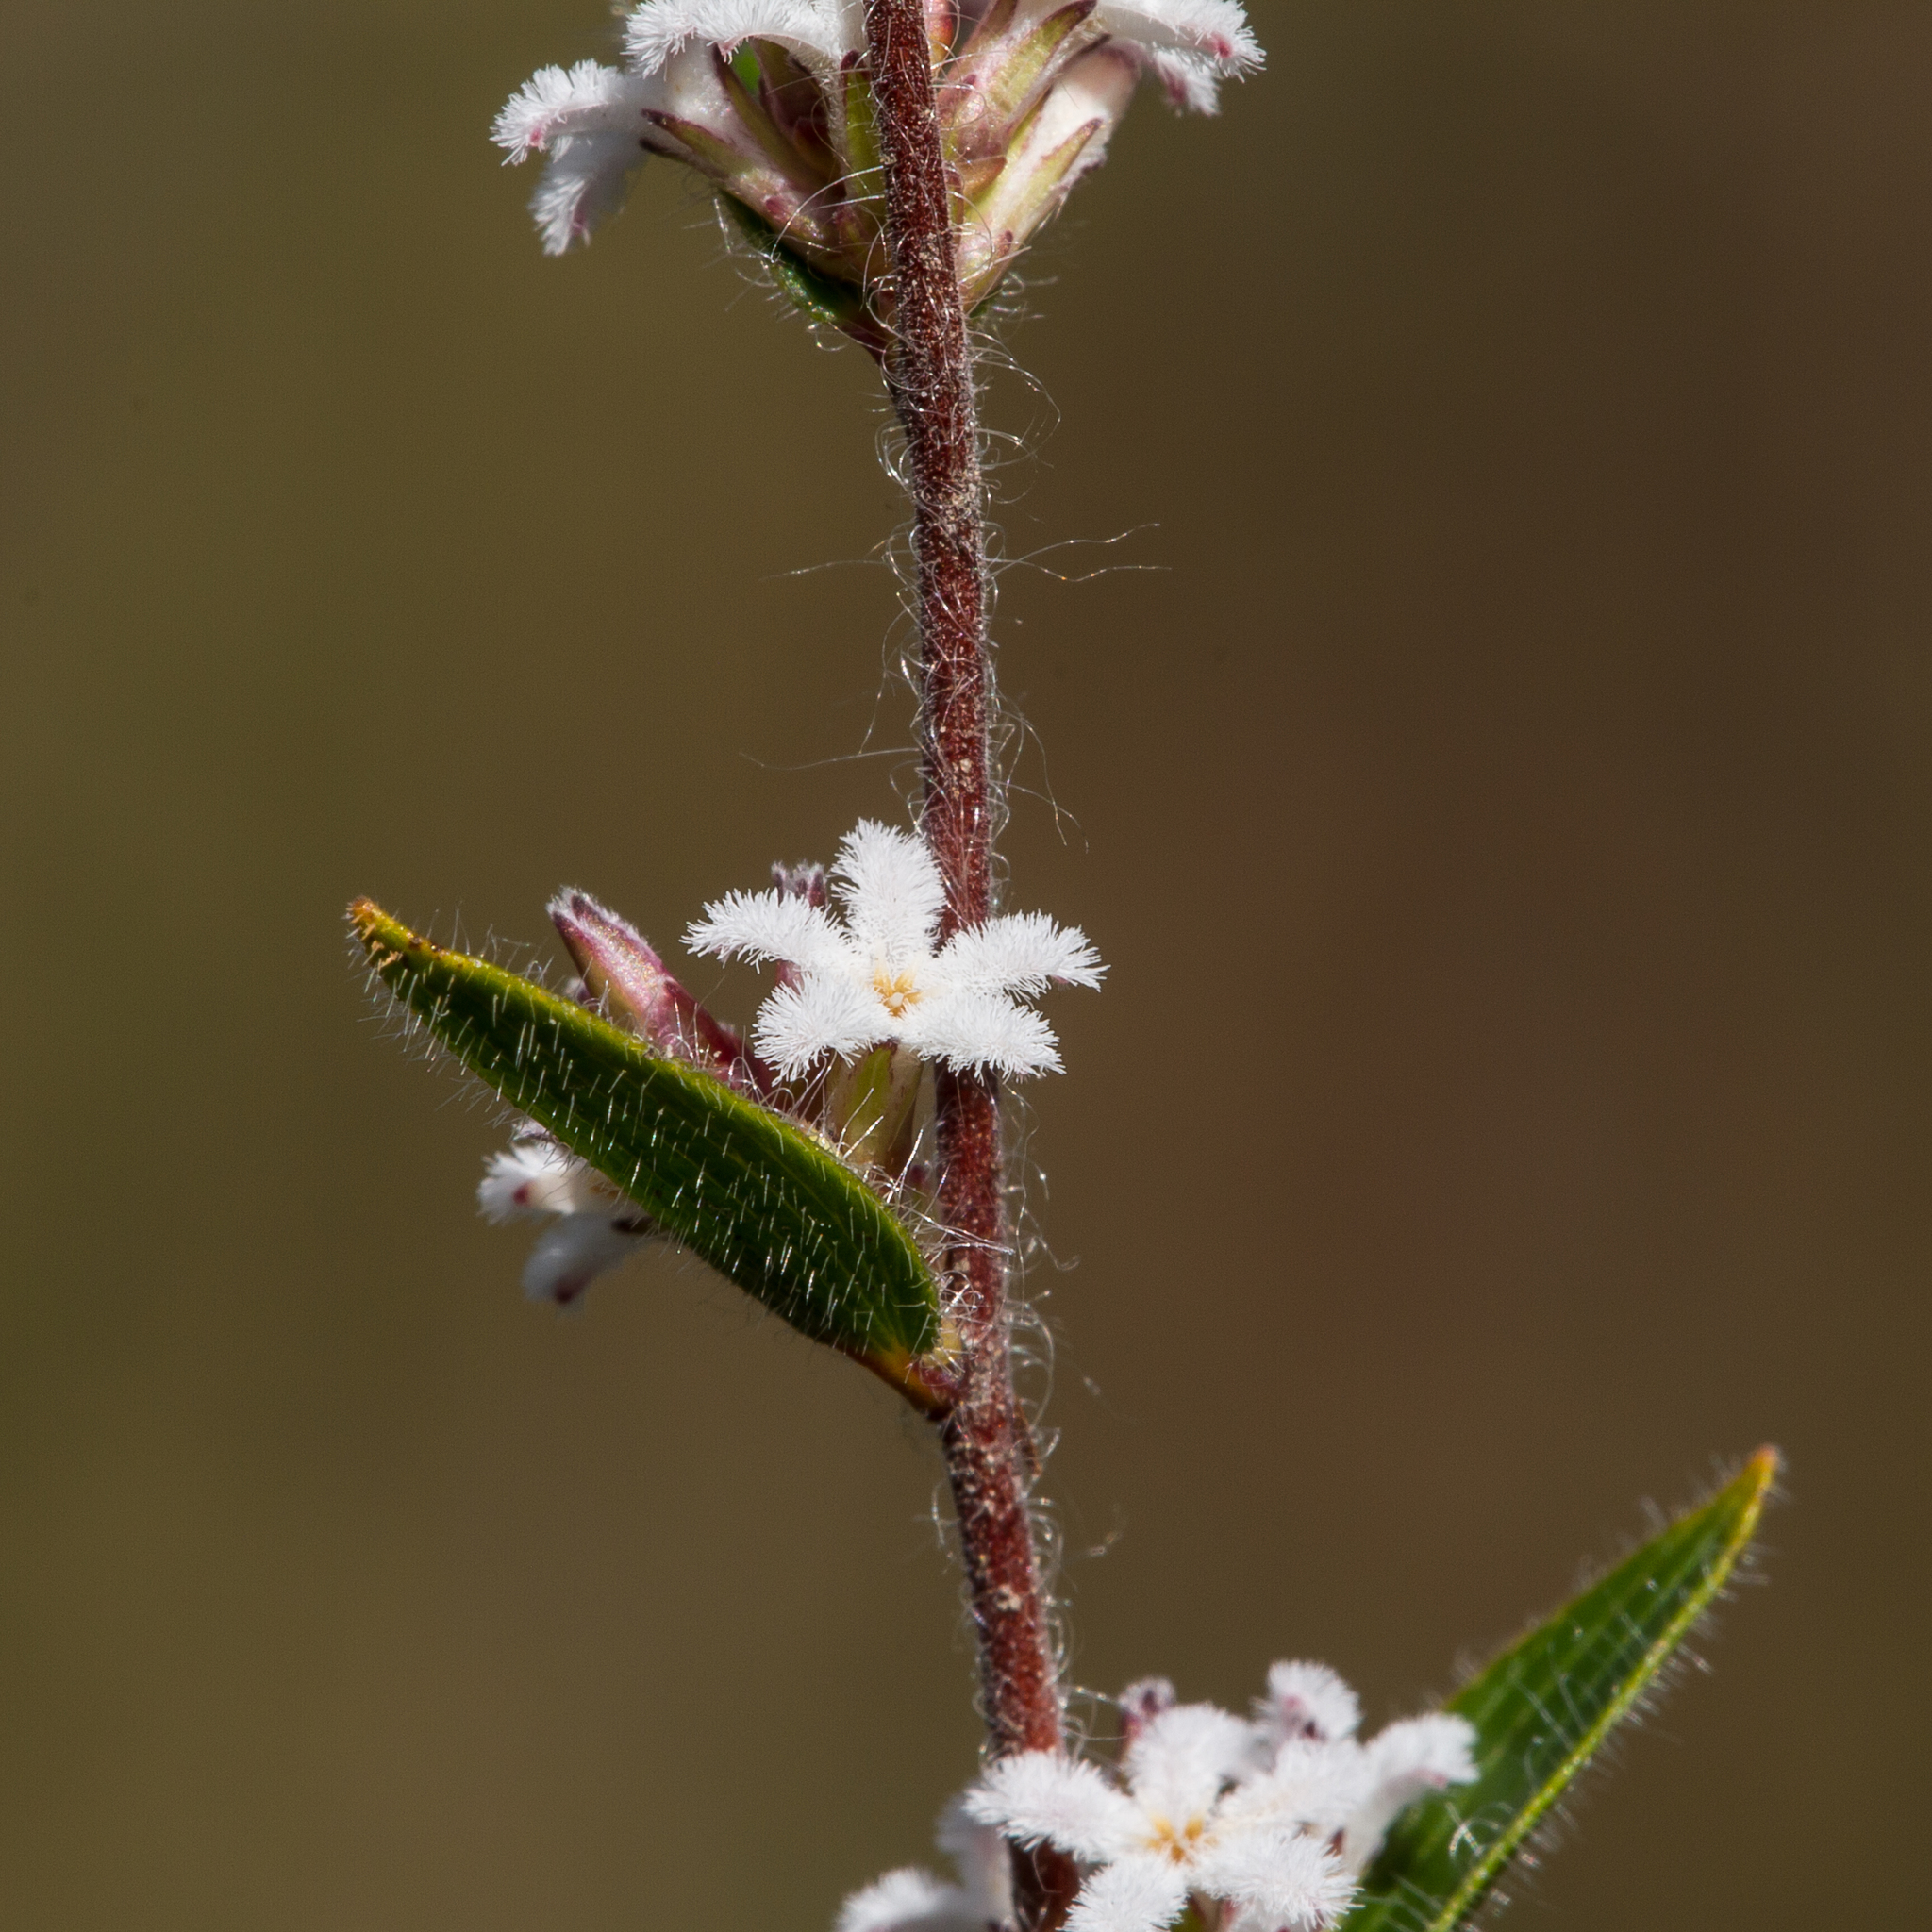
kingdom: Plantae
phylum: Tracheophyta
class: Magnoliopsida
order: Ericales
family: Ericaceae
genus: Leucopogon
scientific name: Leucopogon concurvus
